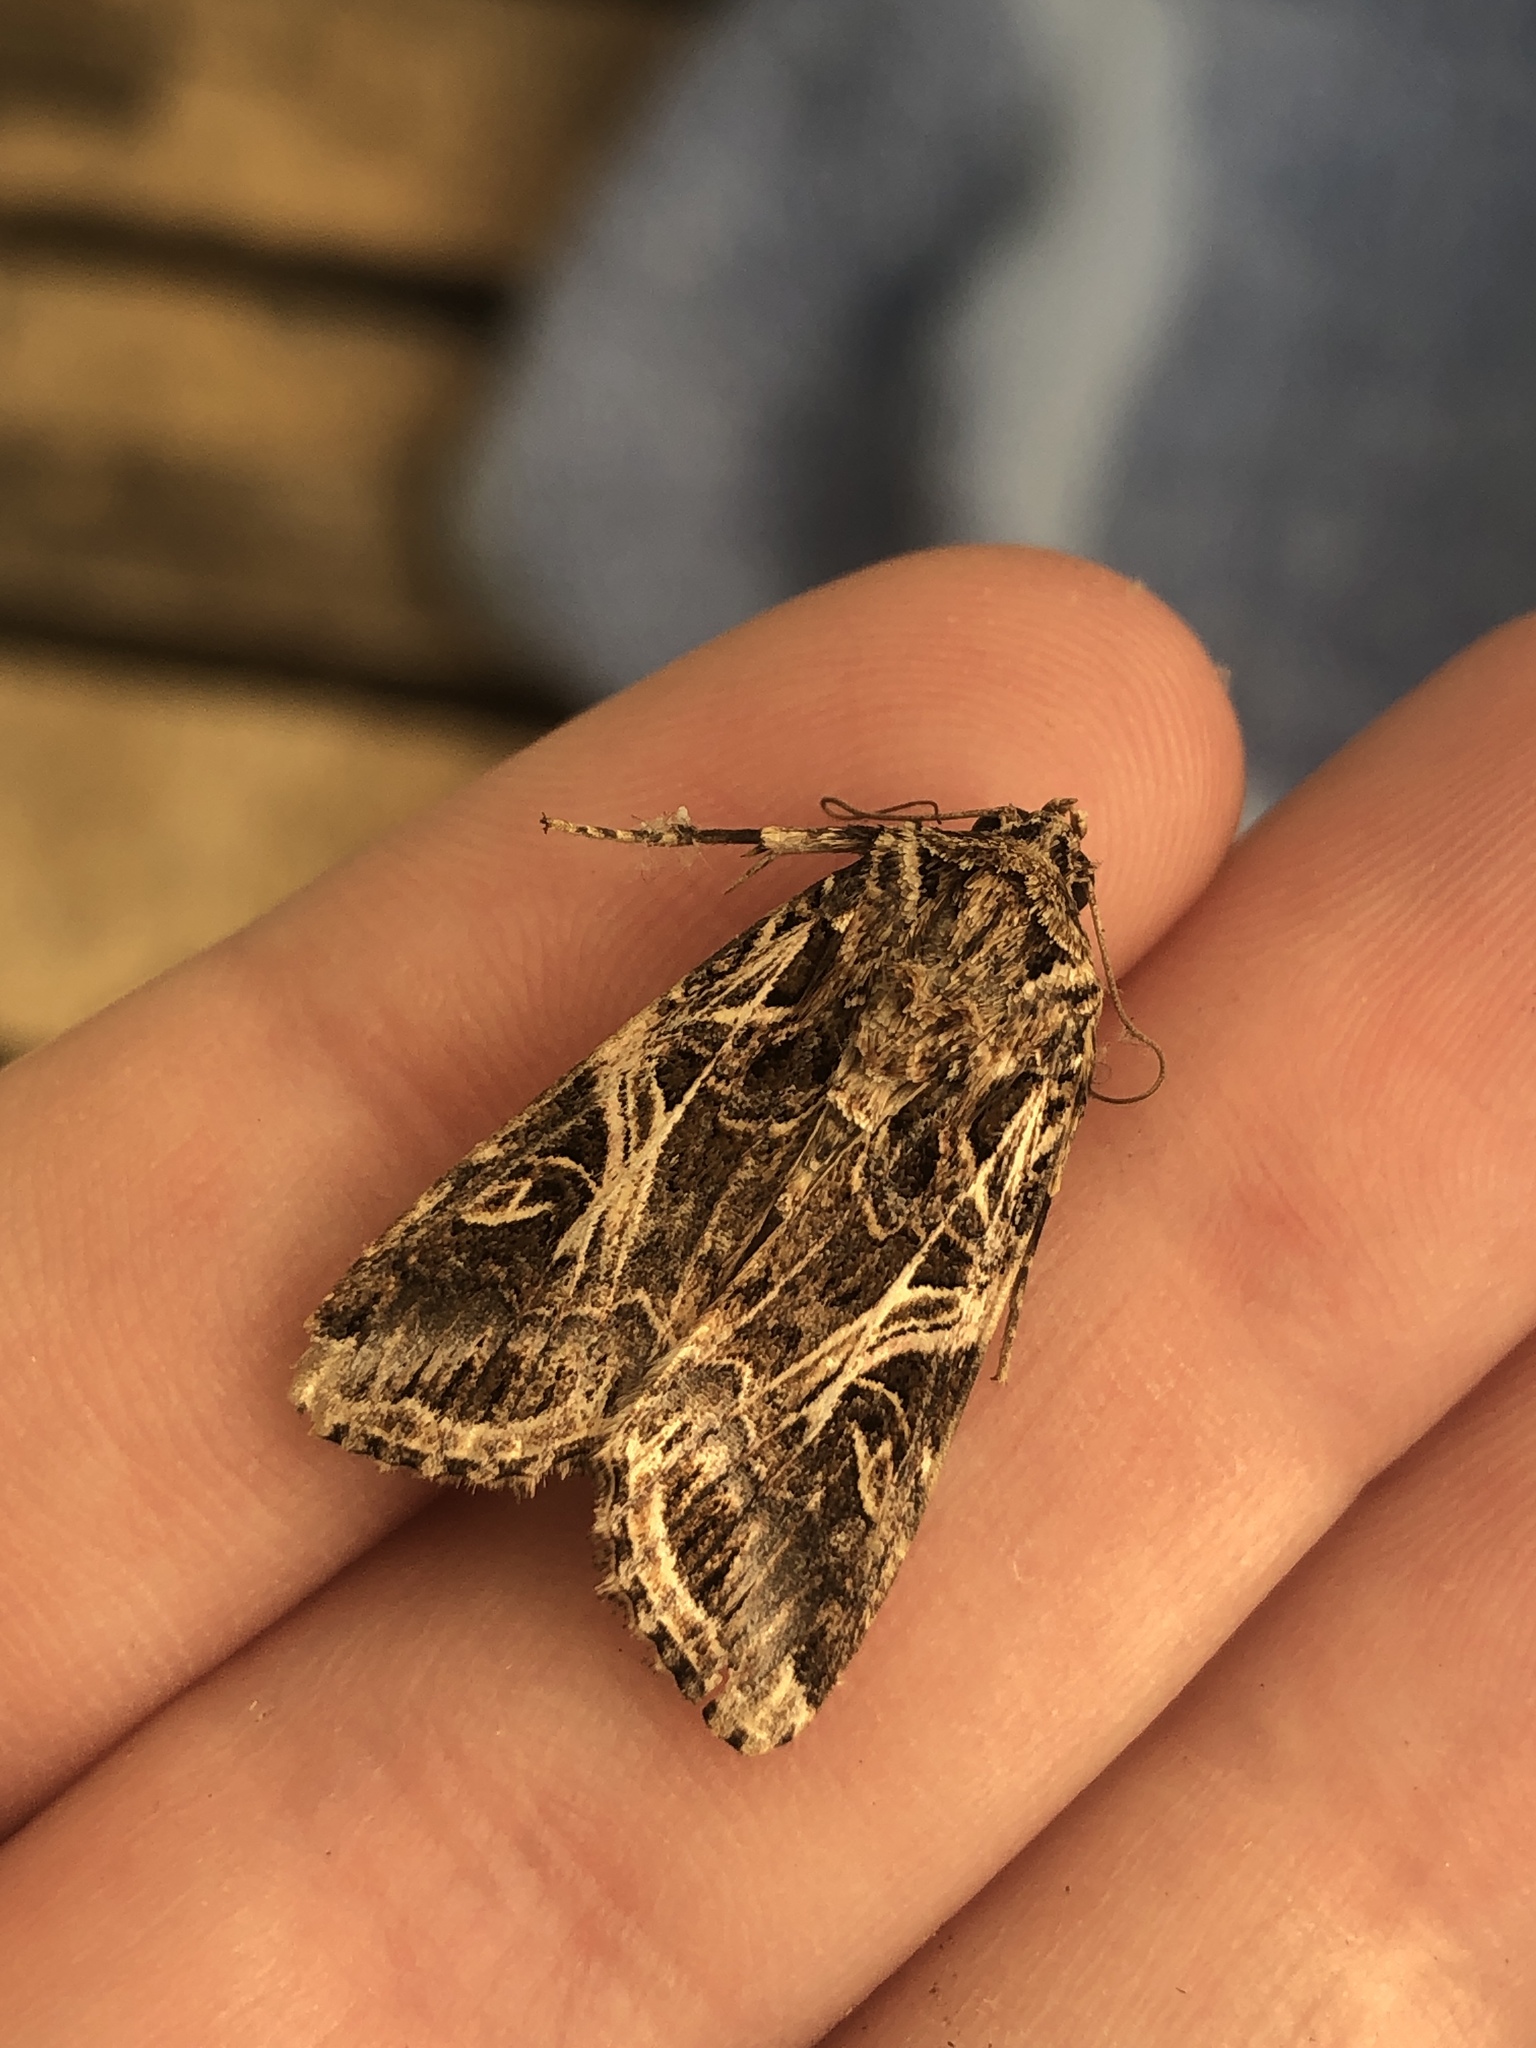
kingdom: Animalia
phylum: Arthropoda
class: Insecta
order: Lepidoptera
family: Noctuidae
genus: Spodoptera
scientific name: Spodoptera litura
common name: Asian cotton leafworm
